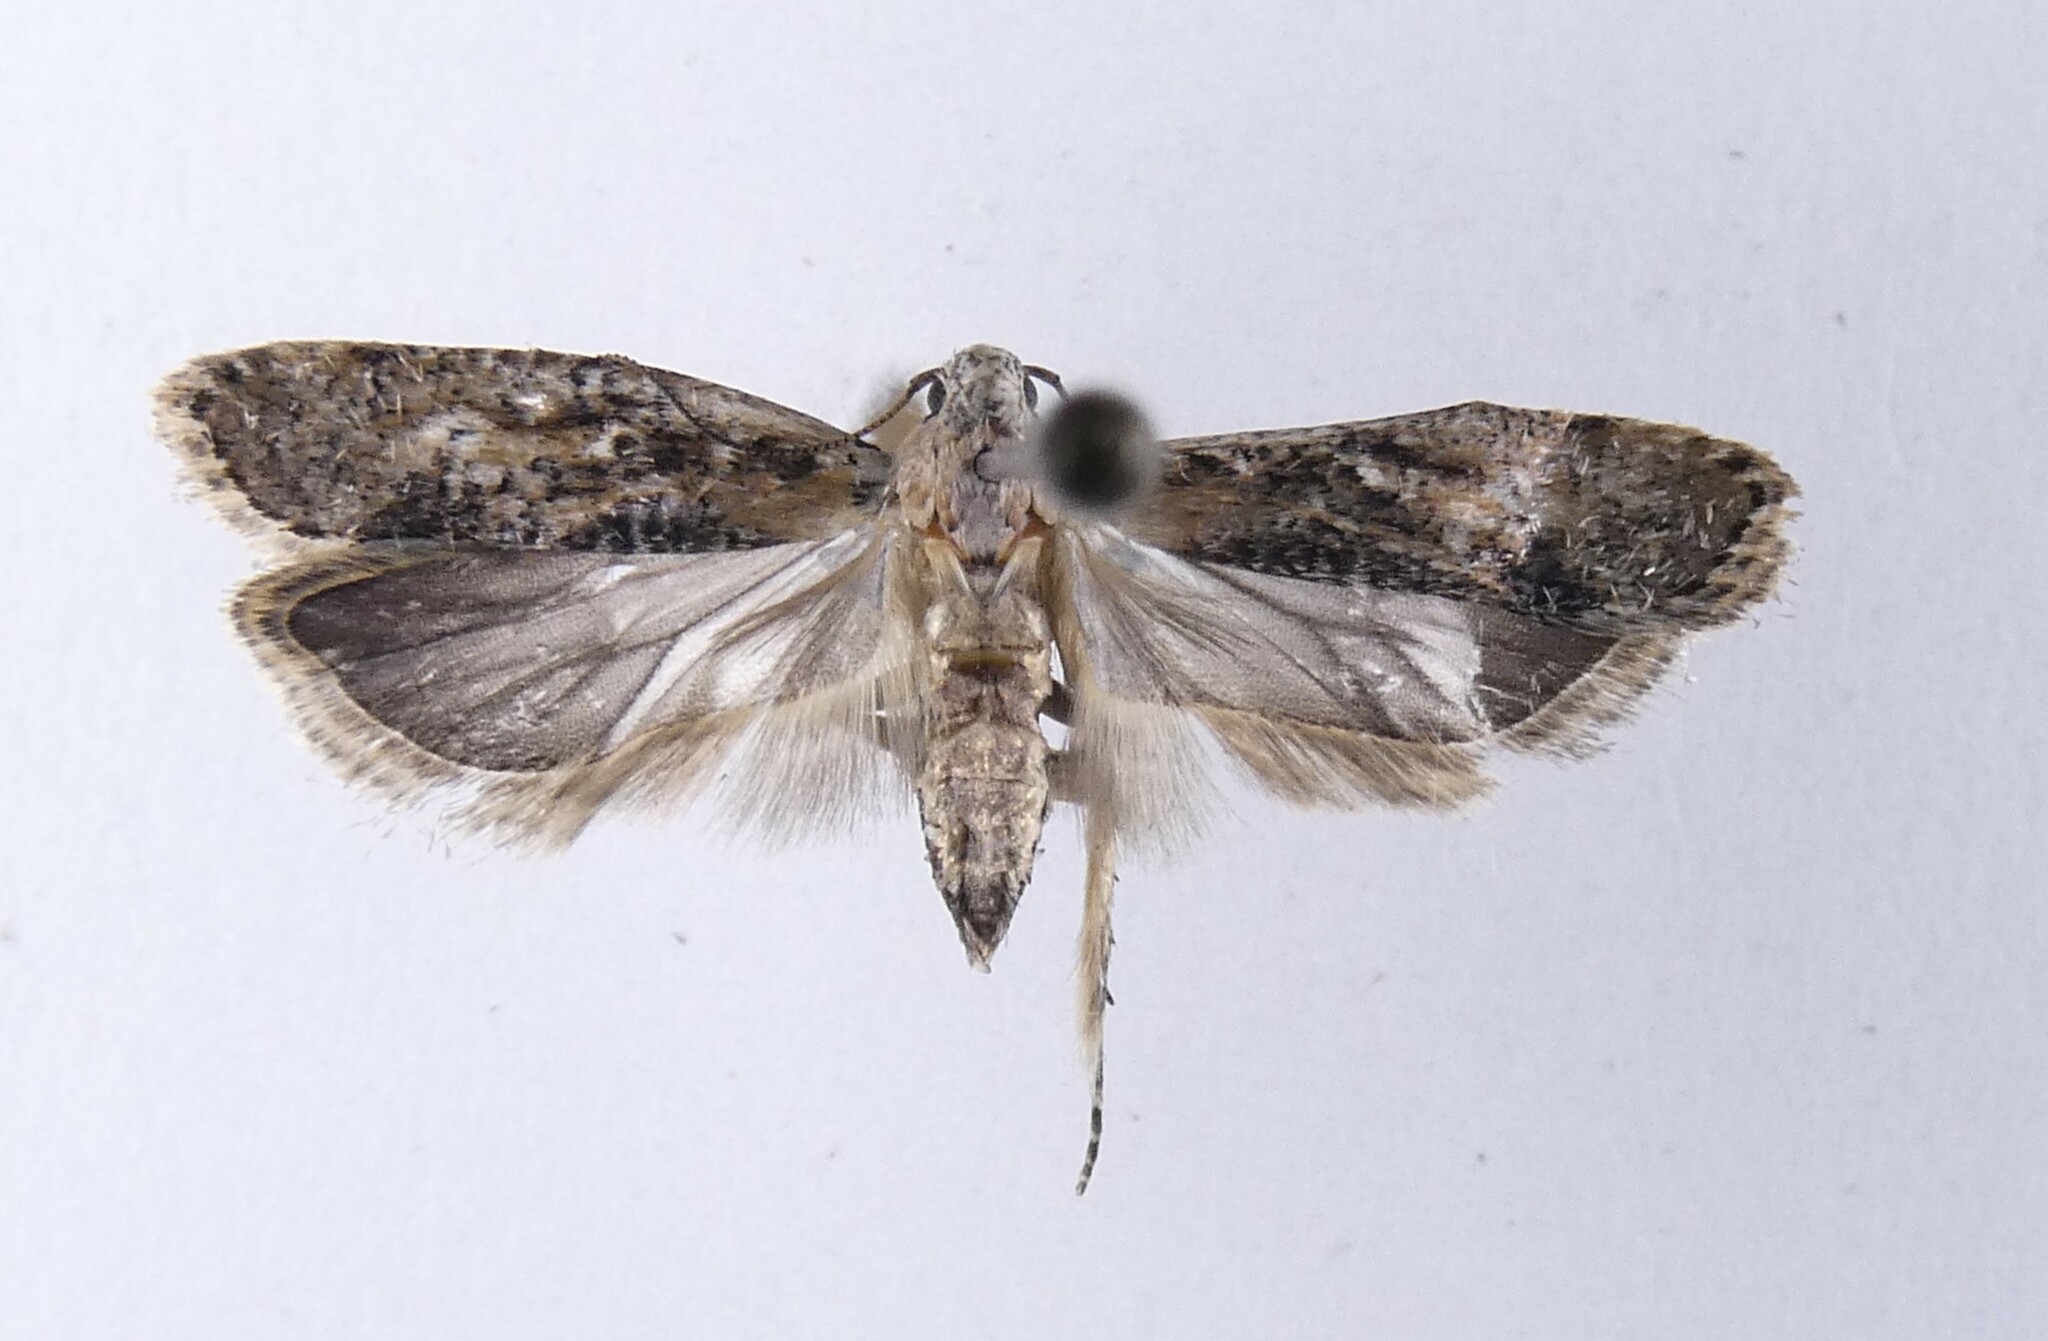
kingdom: Animalia
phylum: Arthropoda
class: Insecta
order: Lepidoptera
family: Gelechiidae
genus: Anisoplaca
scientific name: Anisoplaca achyrota
